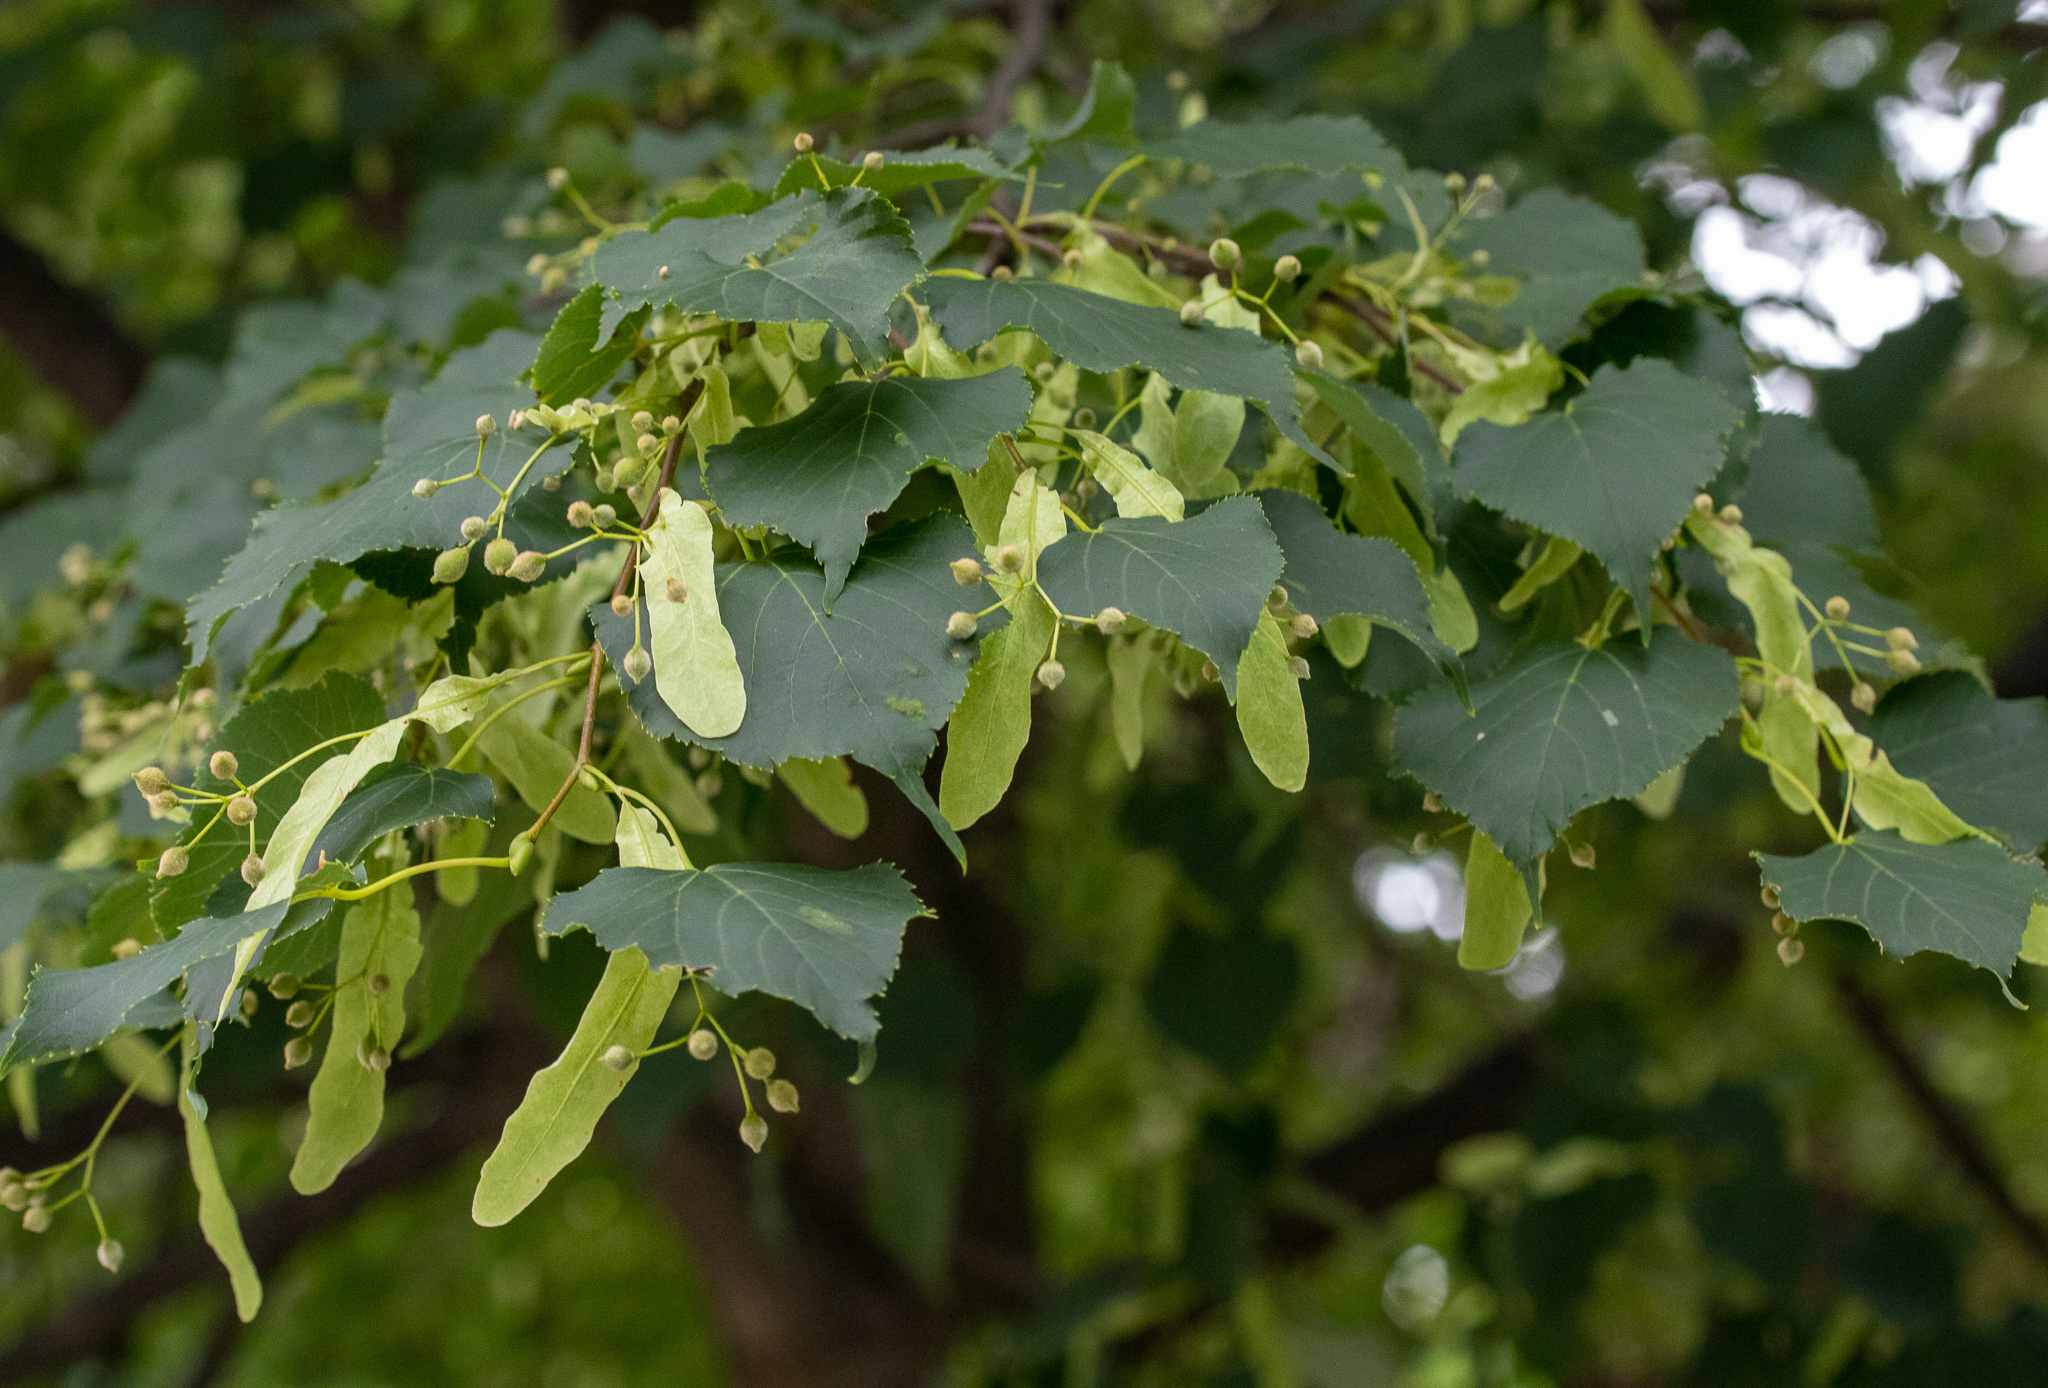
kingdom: Plantae
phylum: Tracheophyta
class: Magnoliopsida
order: Malvales
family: Malvaceae
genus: Tilia
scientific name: Tilia cordata
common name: Small-leaved lime
